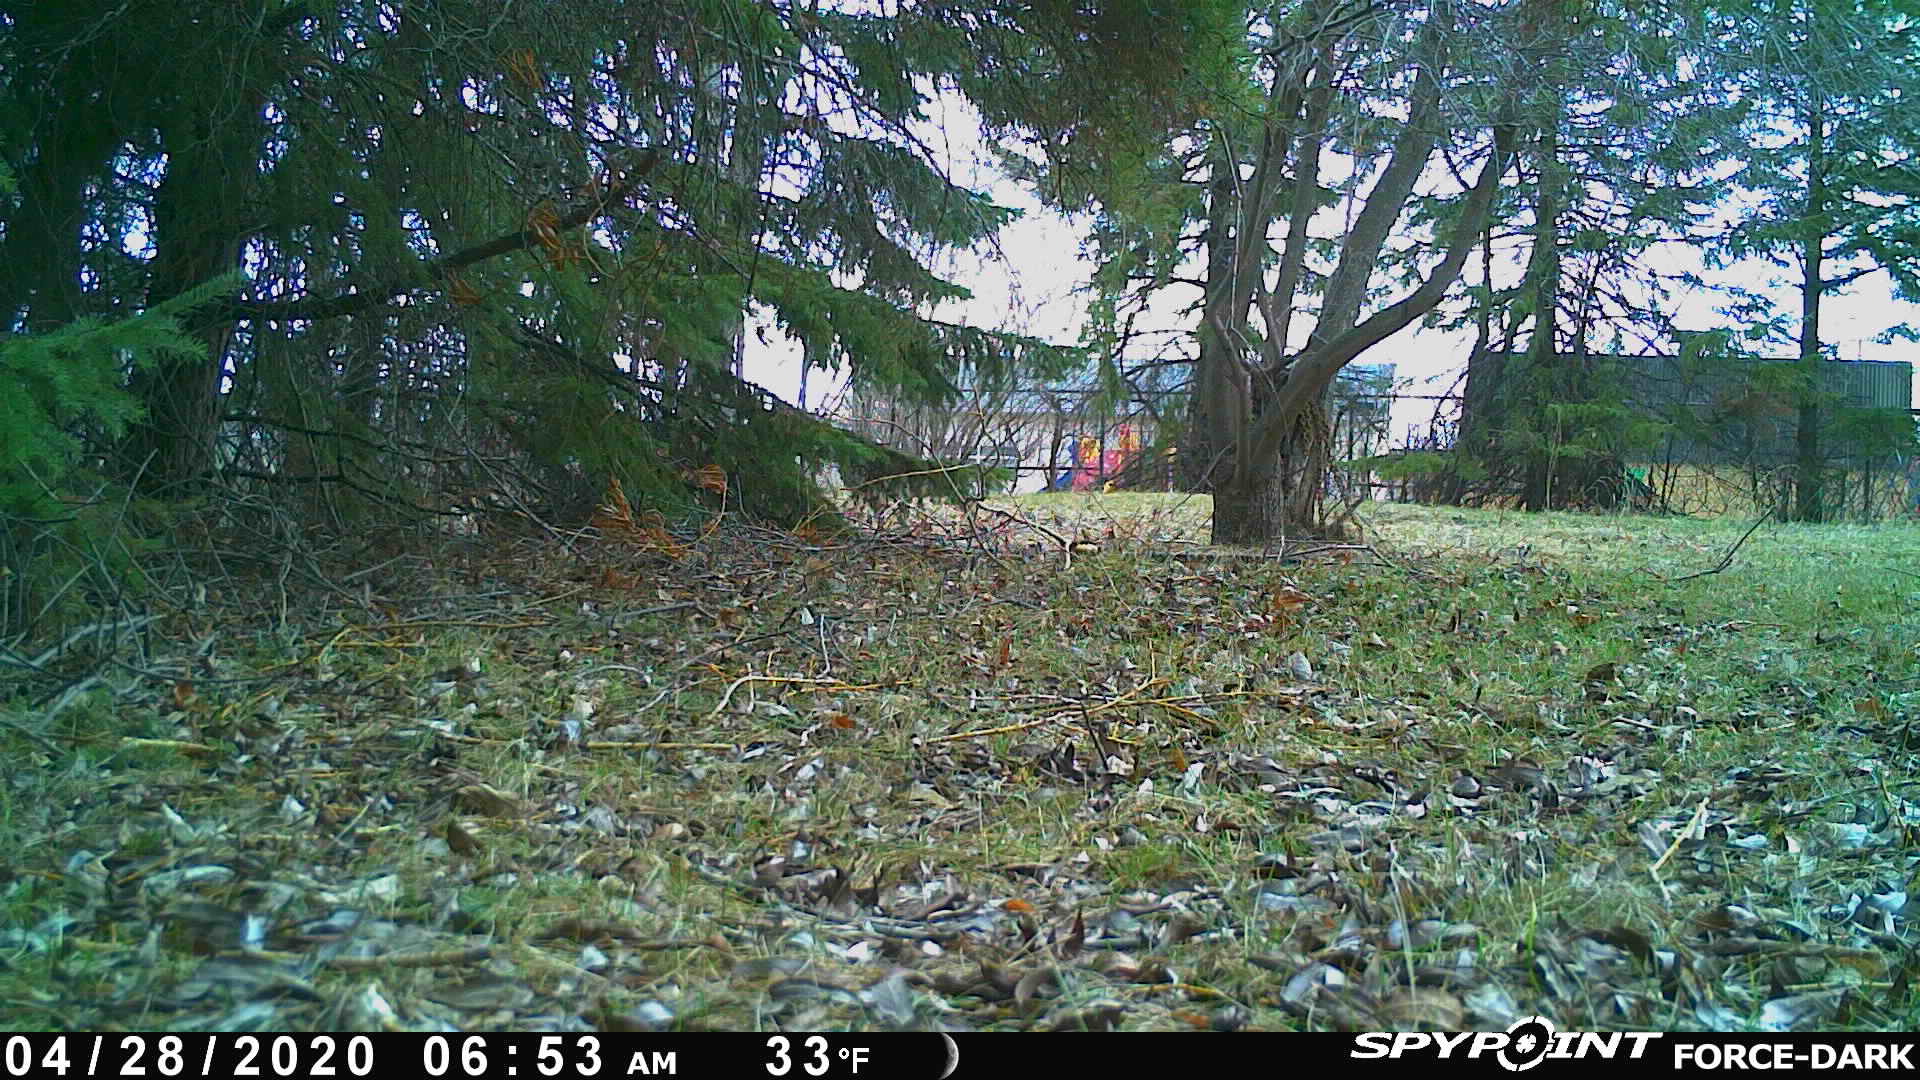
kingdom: Animalia
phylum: Chordata
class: Mammalia
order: Rodentia
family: Sciuridae
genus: Tamiasciurus
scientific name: Tamiasciurus hudsonicus
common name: Red squirrel
